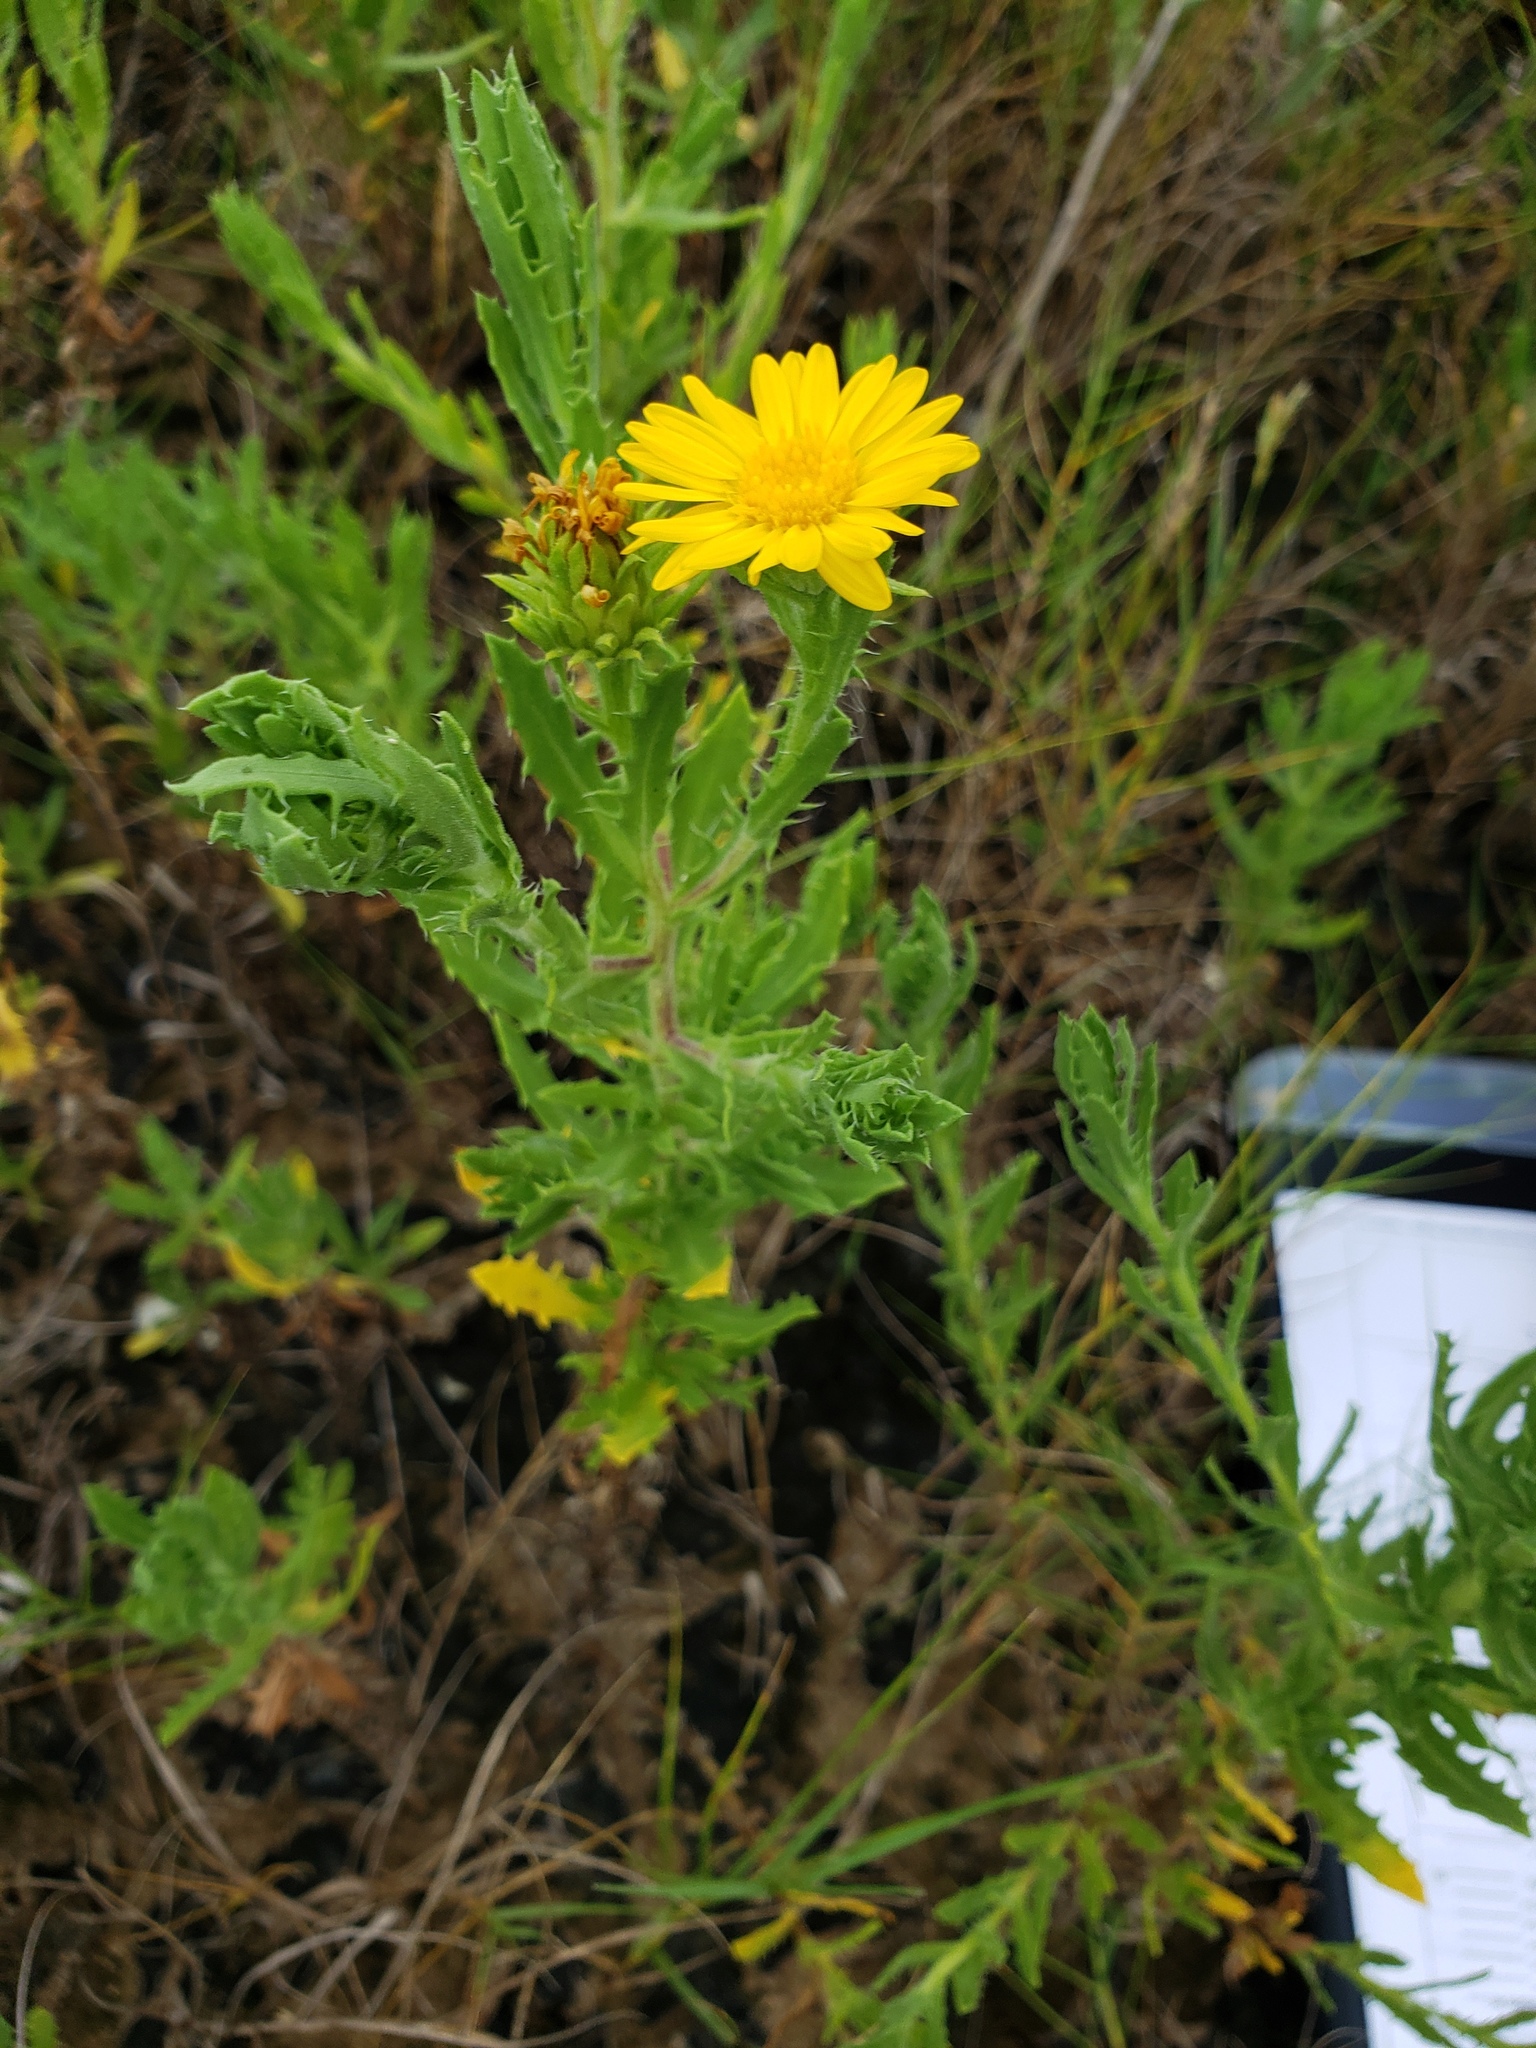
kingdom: Plantae
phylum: Tracheophyta
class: Magnoliopsida
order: Asterales
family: Asteraceae
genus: Rayjacksonia
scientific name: Rayjacksonia phyllocephala
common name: Gulf coast camphor daisy
